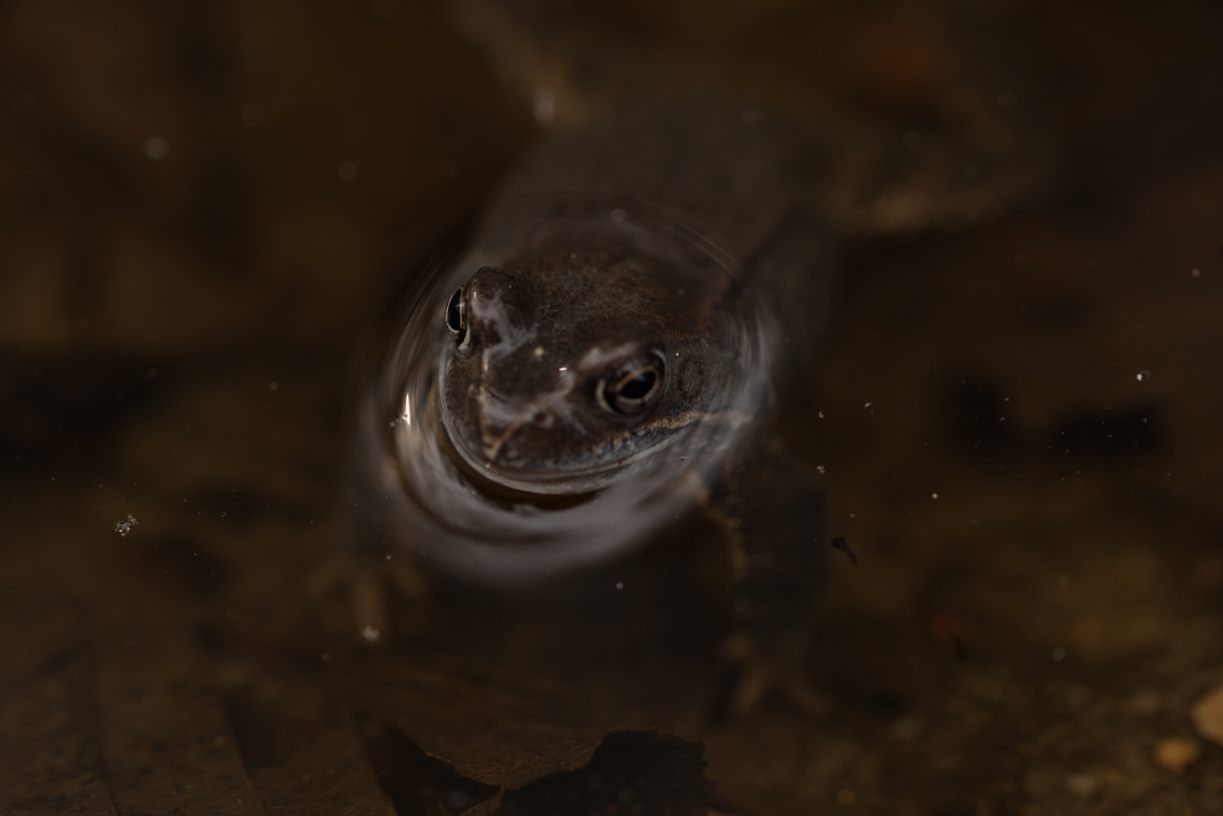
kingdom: Animalia
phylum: Chordata
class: Amphibia
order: Anura
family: Ranidae
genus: Rana
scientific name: Rana temporaria
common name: Common frog
